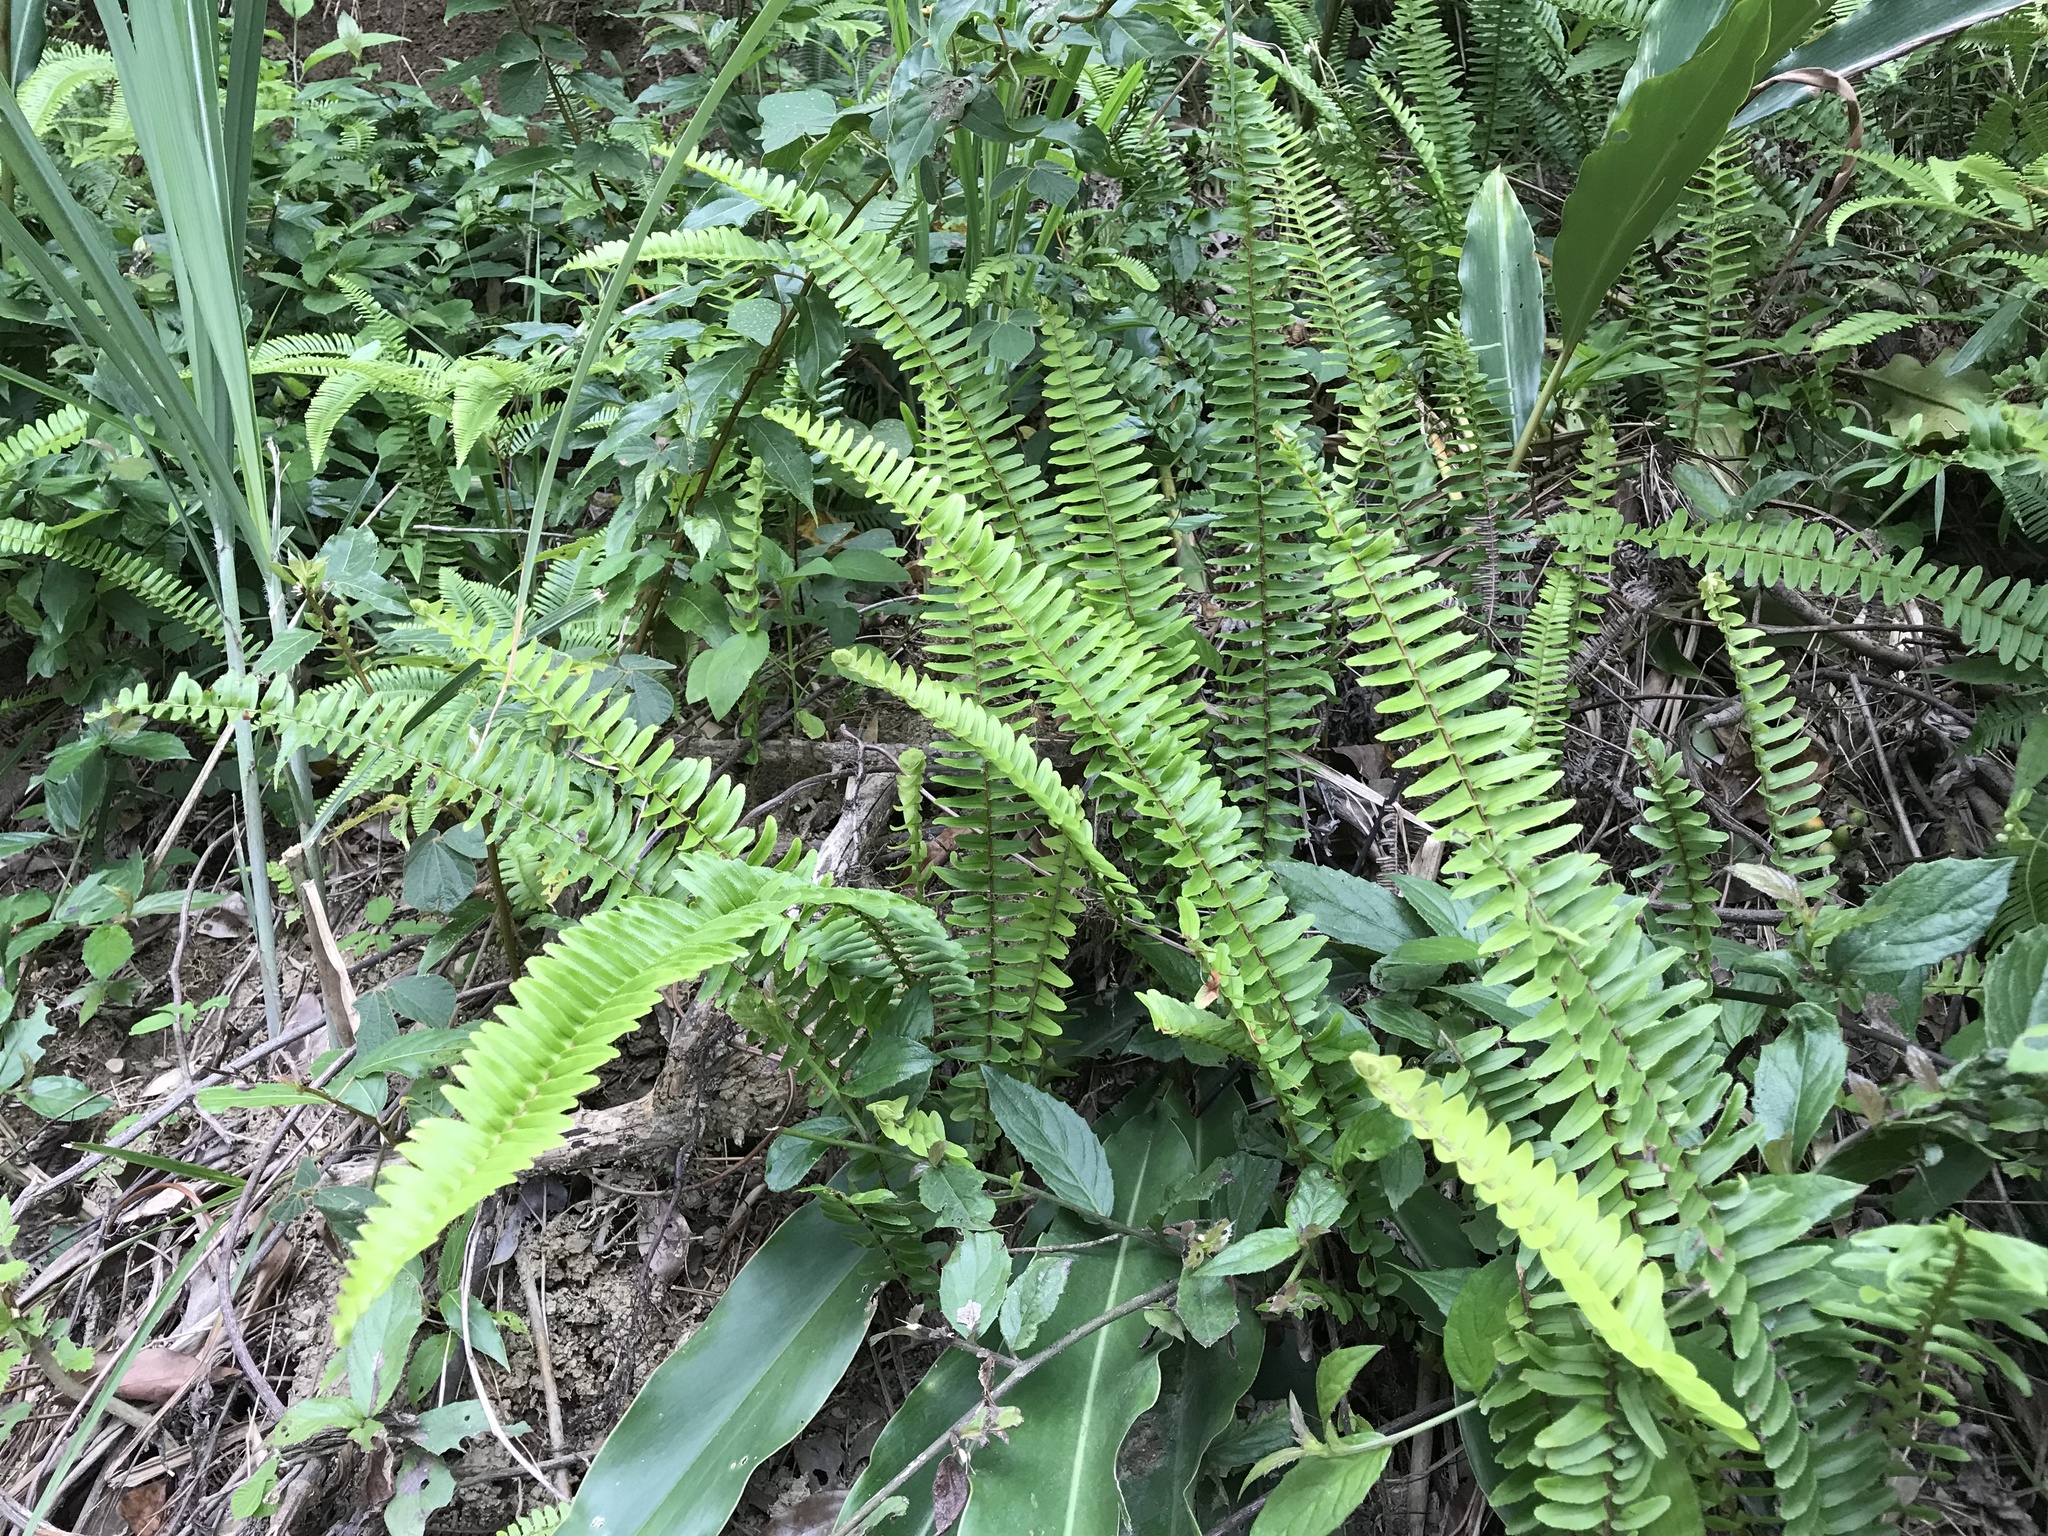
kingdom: Plantae
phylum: Tracheophyta
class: Polypodiopsida
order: Polypodiales
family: Nephrolepidaceae
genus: Nephrolepis
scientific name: Nephrolepis cordifolia
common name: Narrow swordfern
